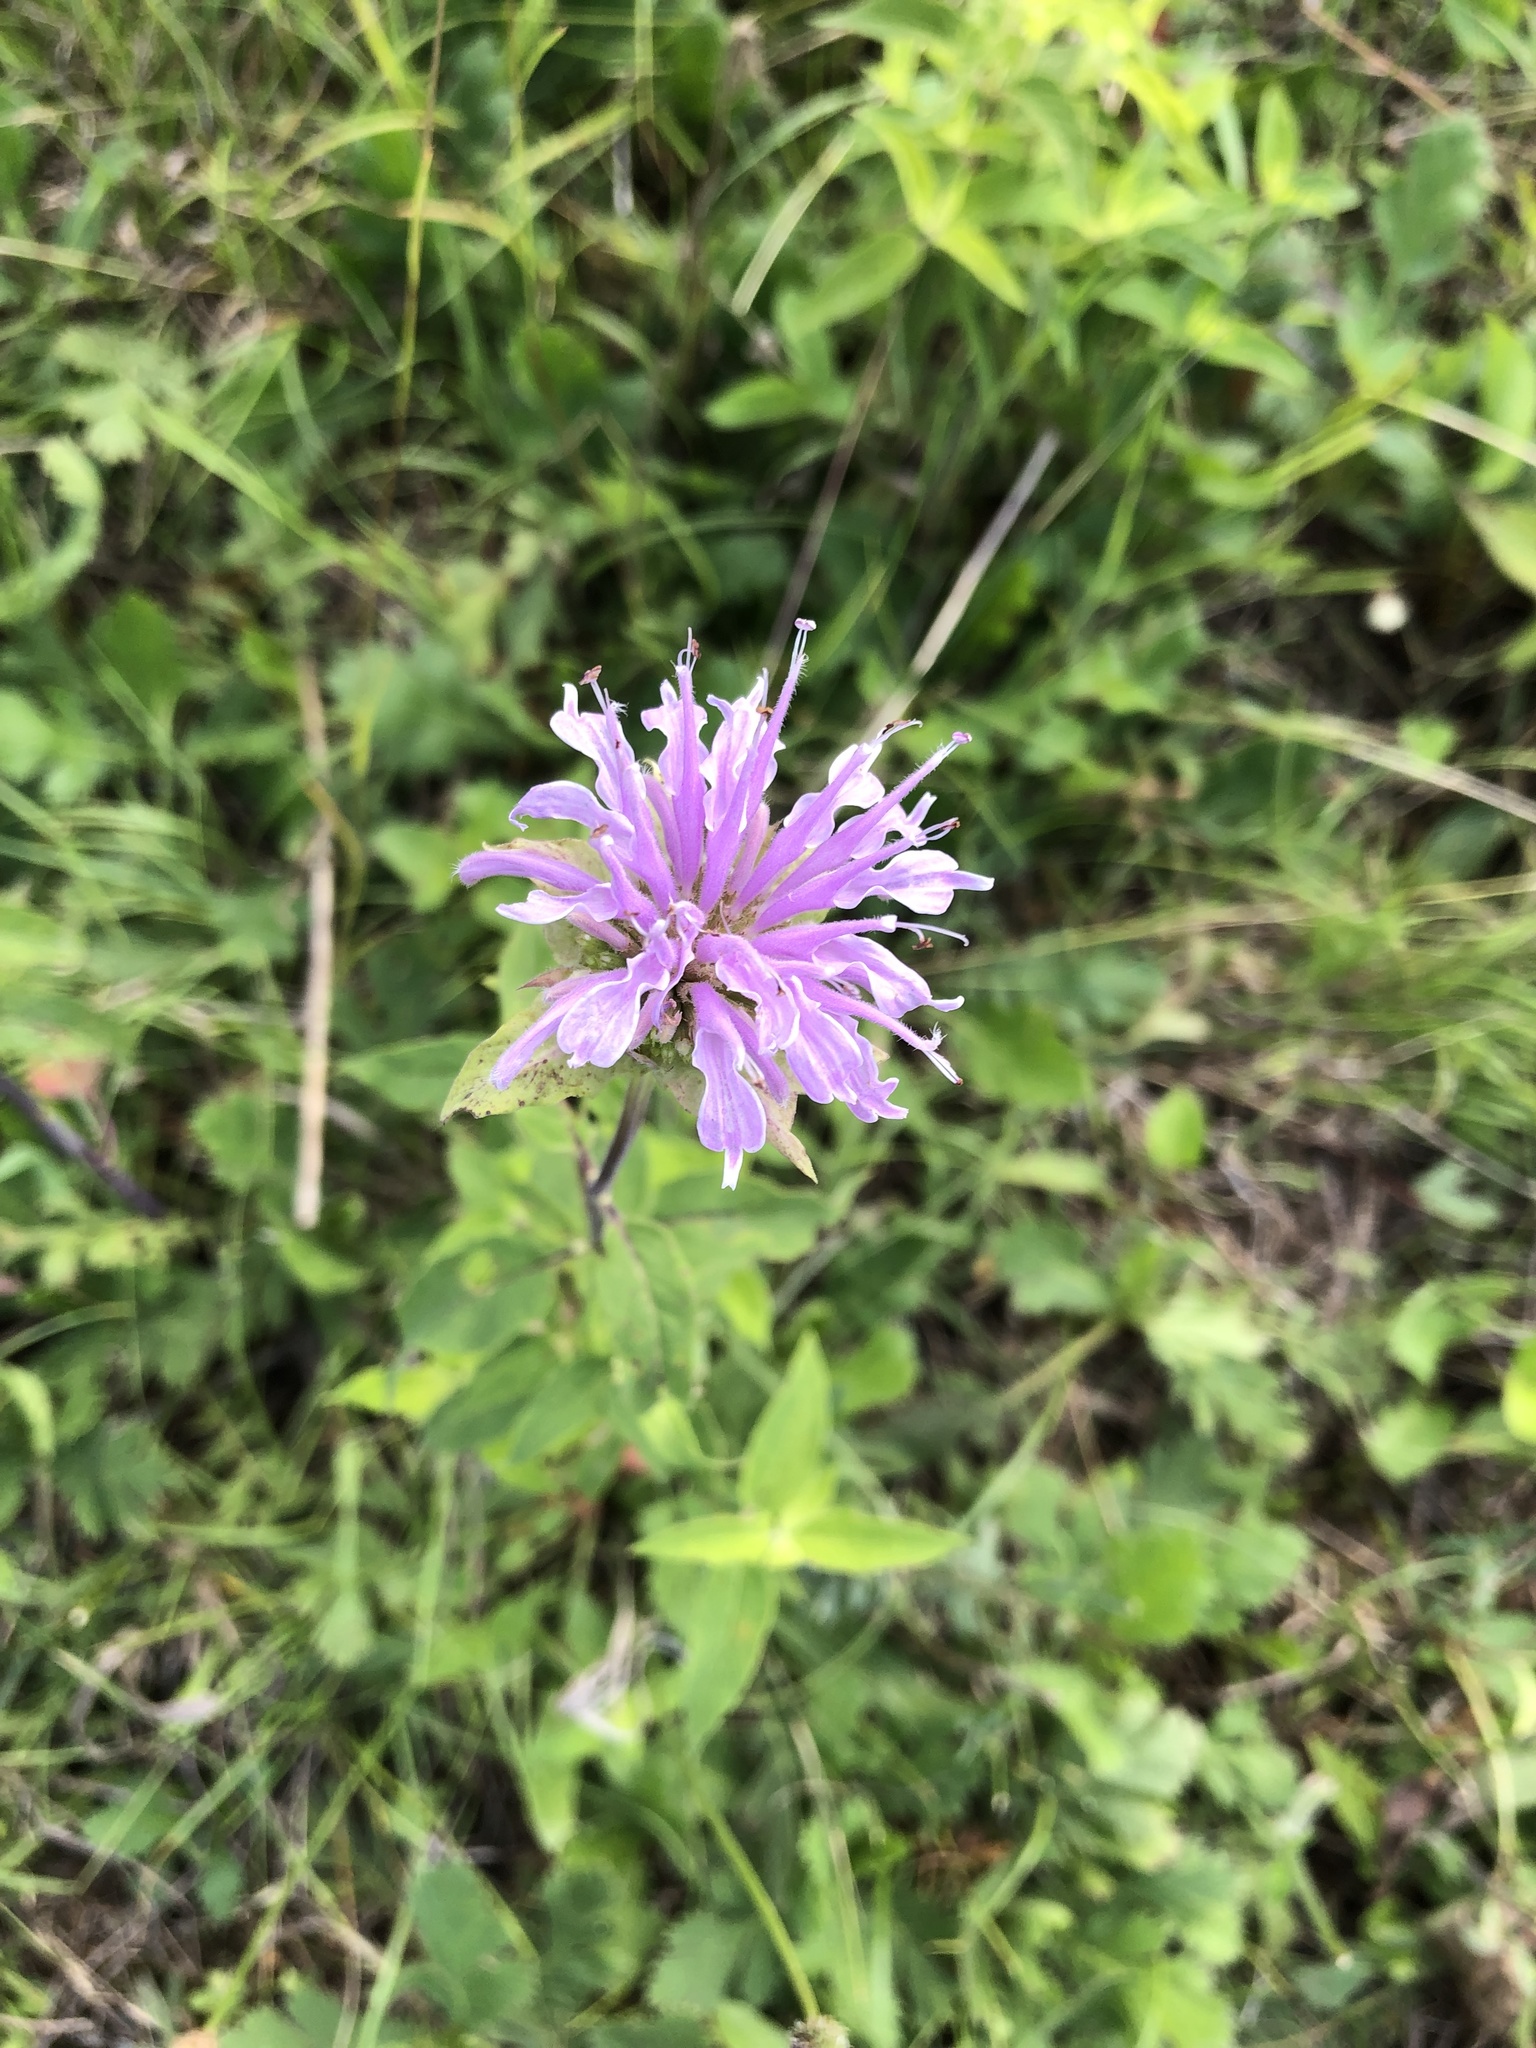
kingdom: Plantae
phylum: Tracheophyta
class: Magnoliopsida
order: Lamiales
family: Lamiaceae
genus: Monarda
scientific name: Monarda fistulosa
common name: Purple beebalm
